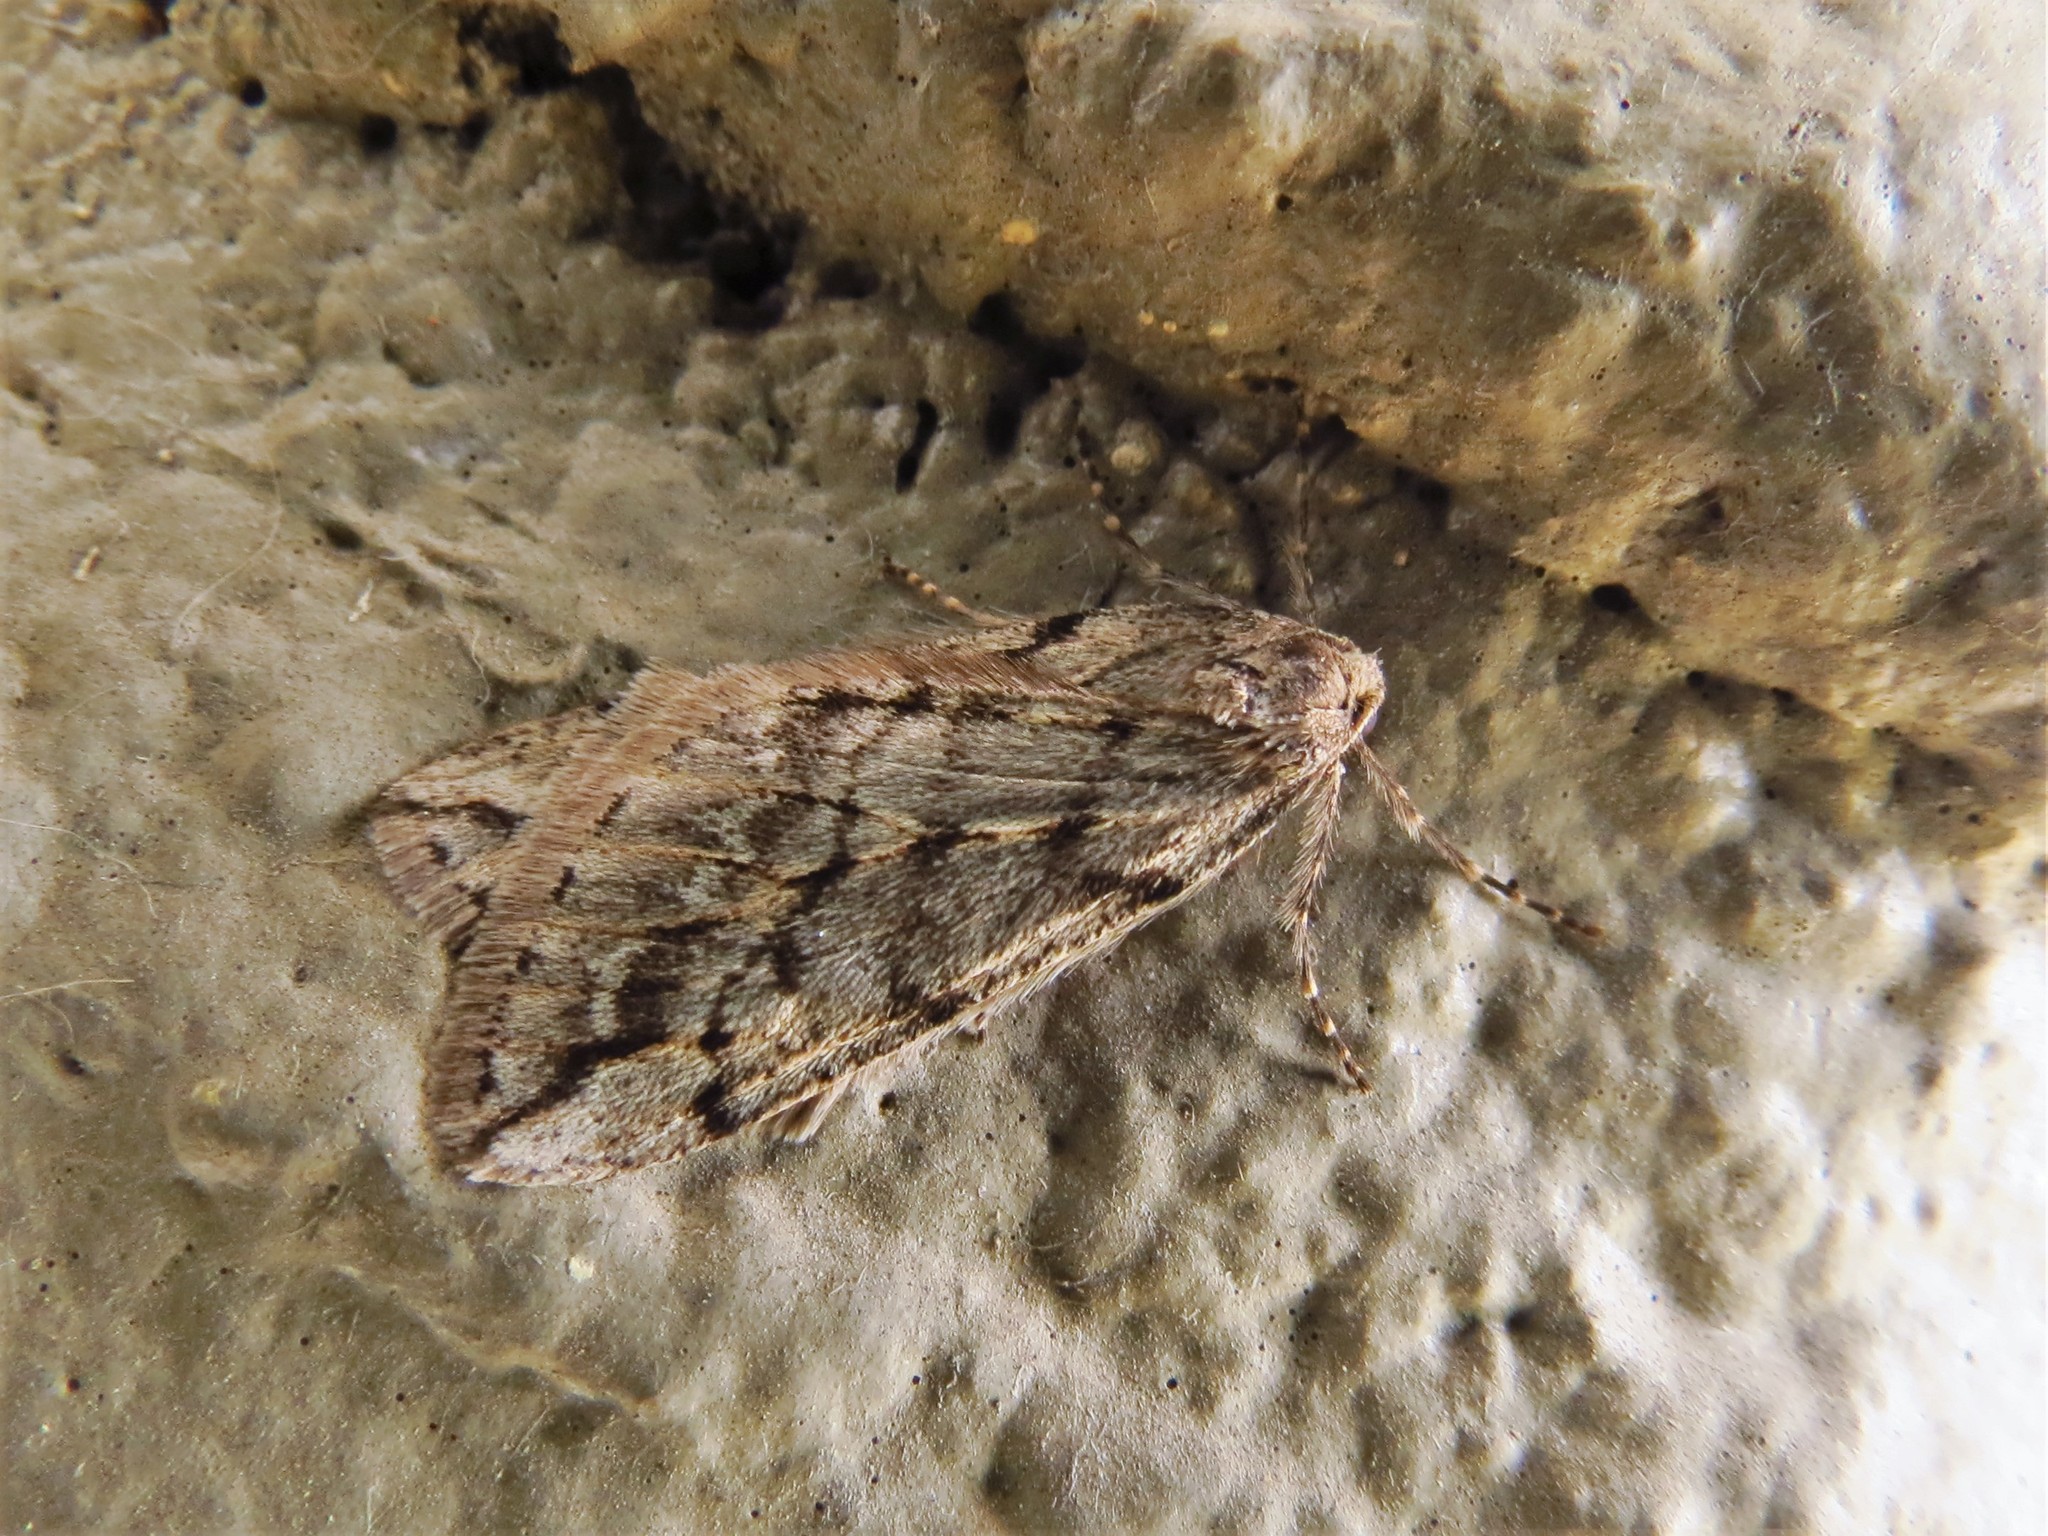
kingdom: Animalia
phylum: Arthropoda
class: Insecta
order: Lepidoptera
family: Geometridae
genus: Paleacrita
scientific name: Paleacrita vernata
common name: Spring cankerworm
